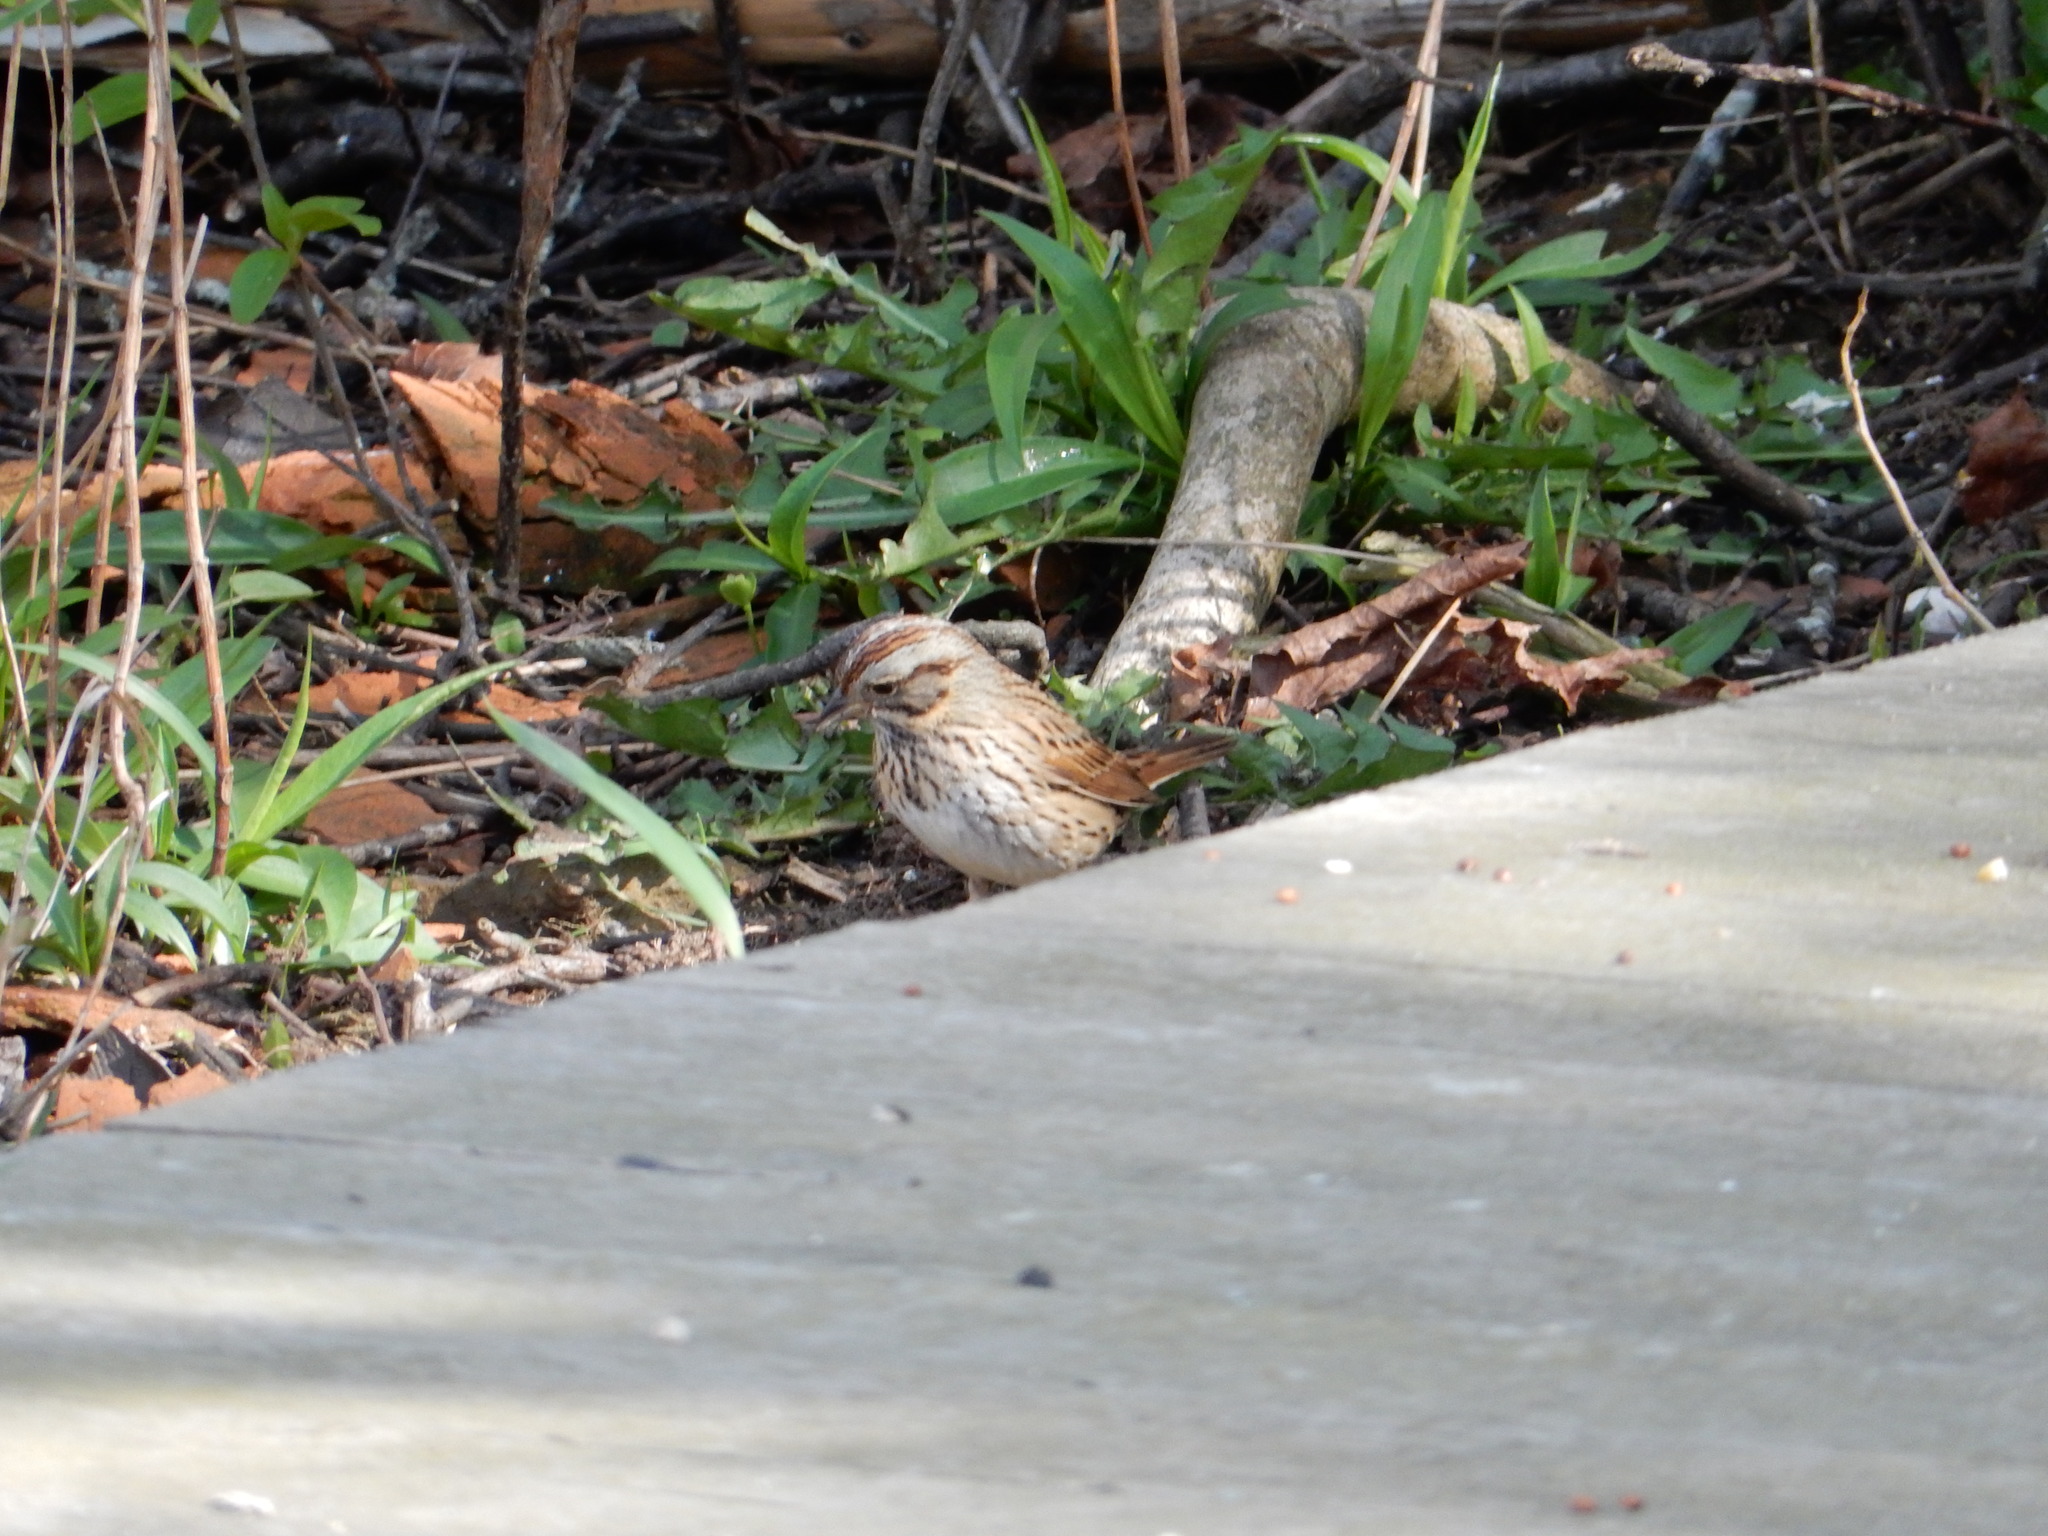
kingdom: Animalia
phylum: Chordata
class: Aves
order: Passeriformes
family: Passerellidae
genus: Melospiza
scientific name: Melospiza lincolnii
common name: Lincoln's sparrow
